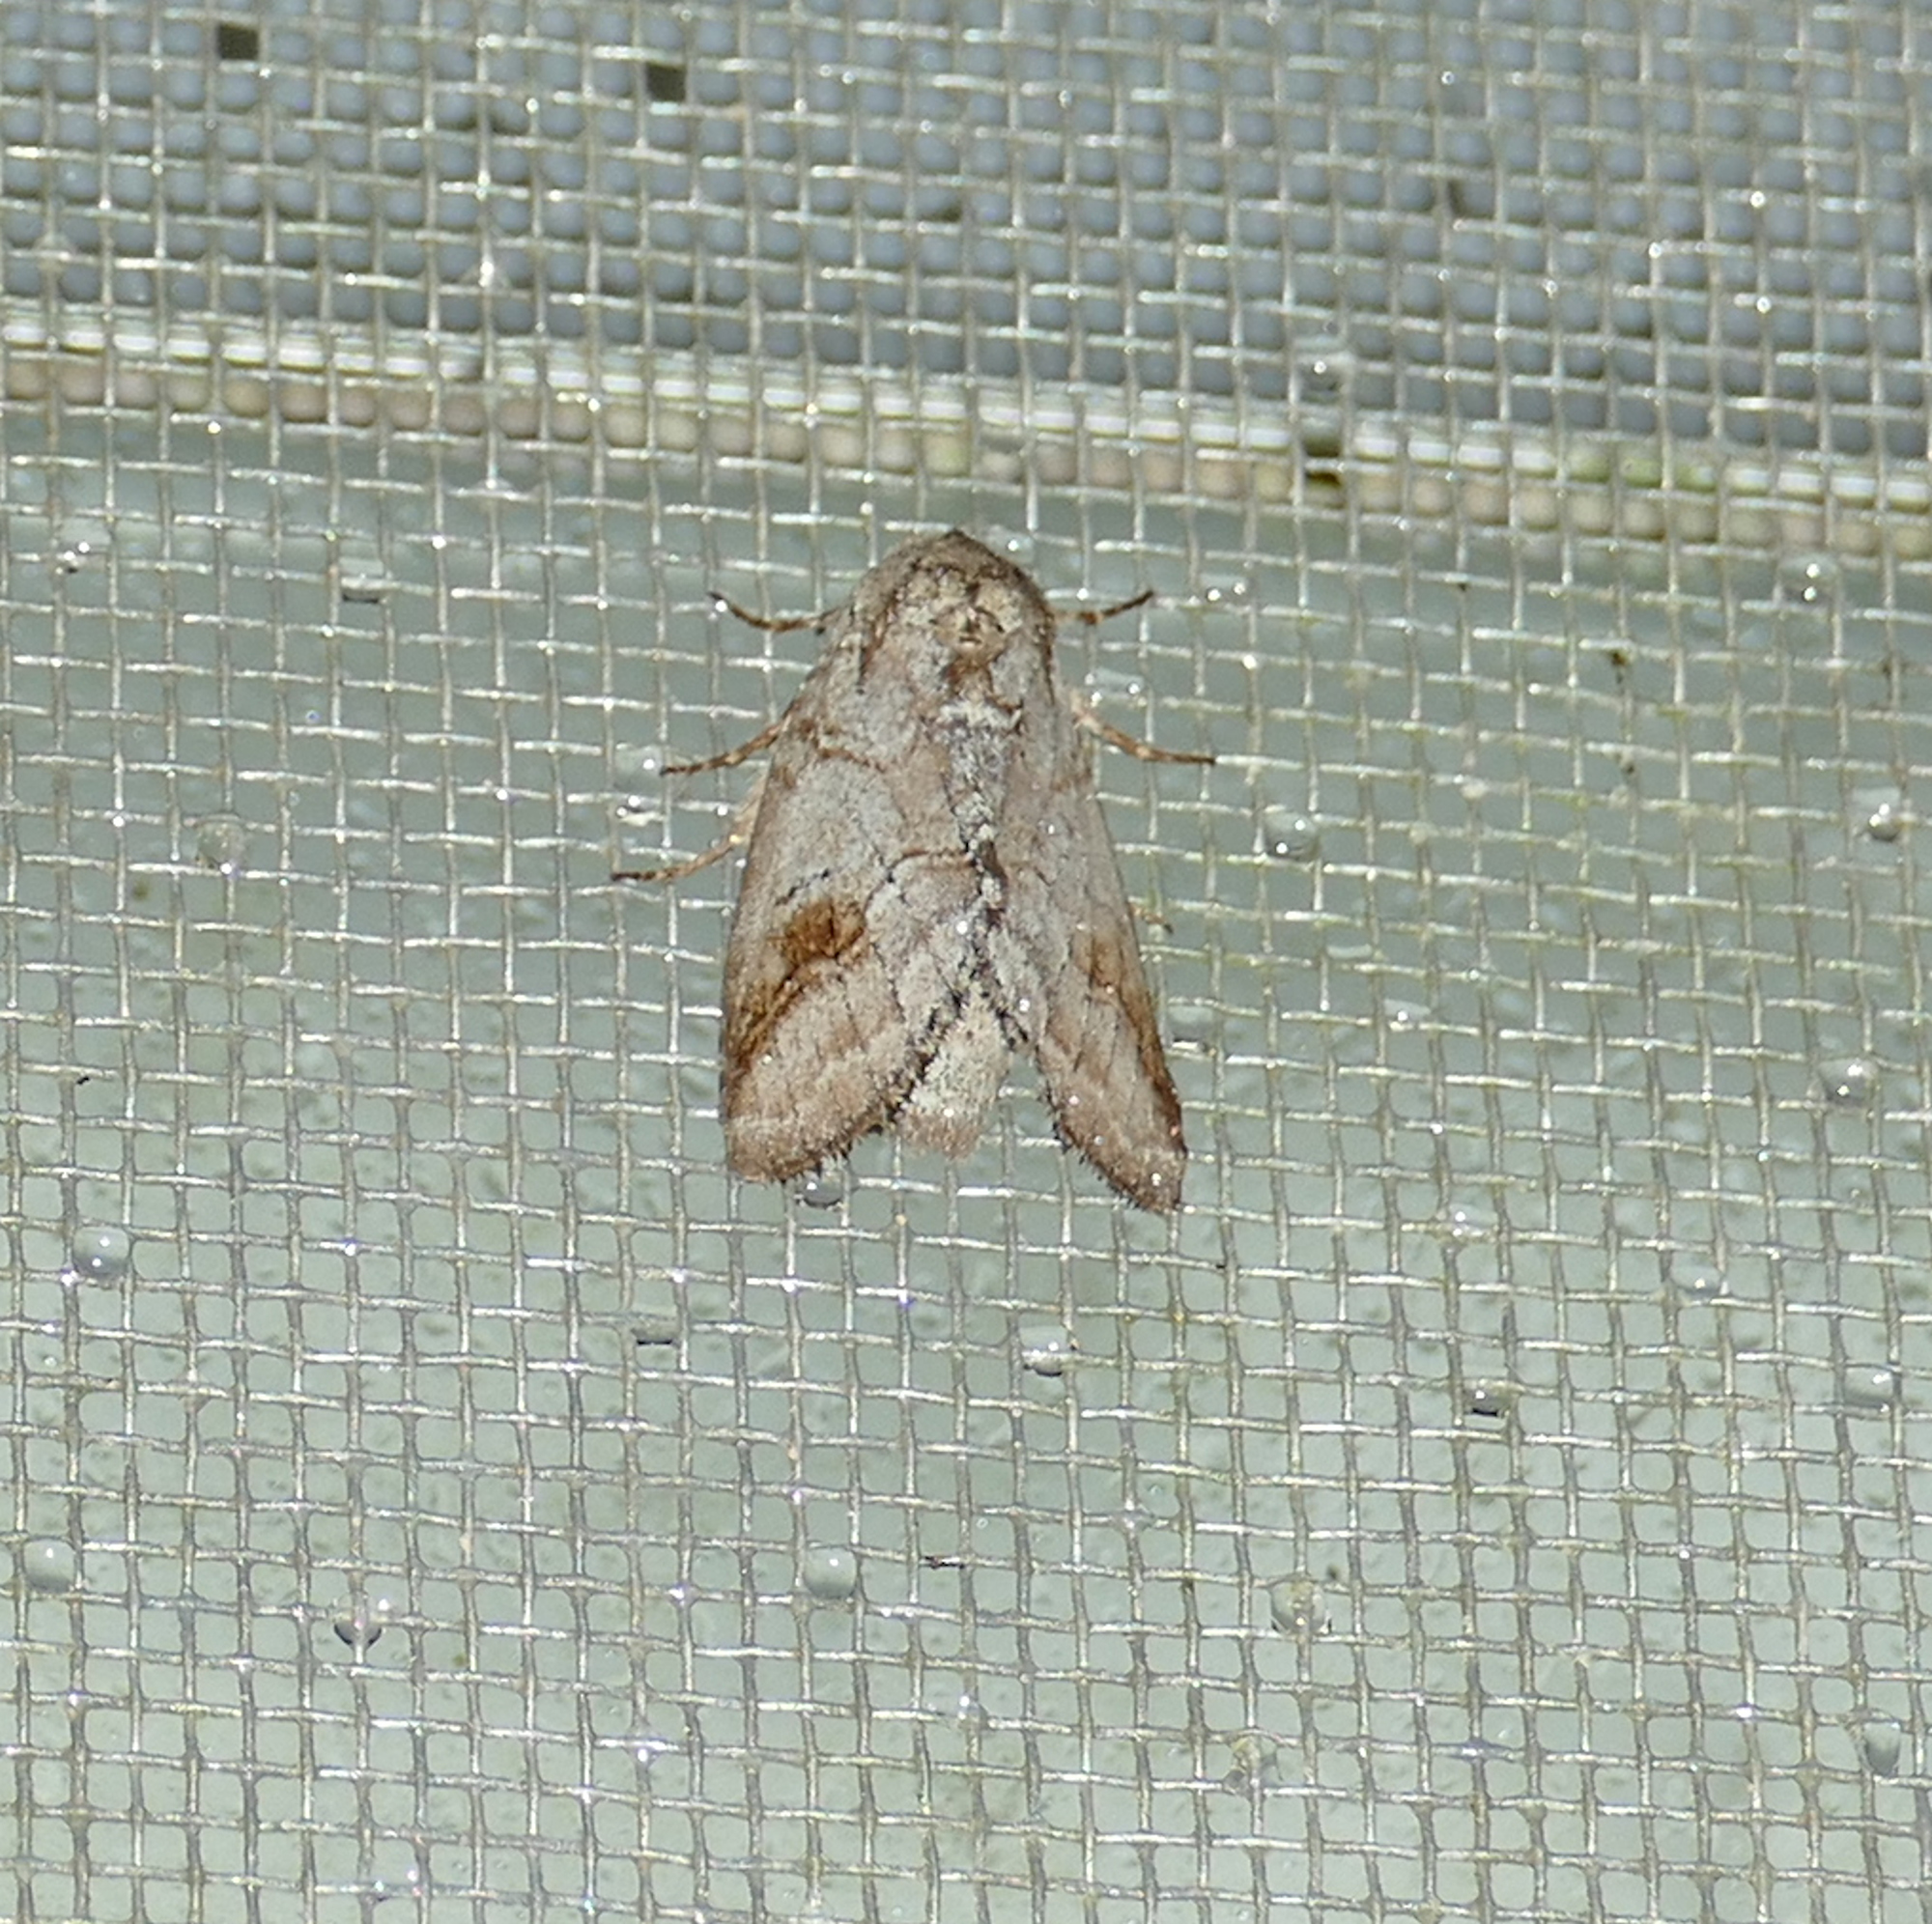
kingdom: Animalia
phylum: Arthropoda
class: Insecta
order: Lepidoptera
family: Notodontidae
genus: Lochmaeus
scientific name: Lochmaeus bilineata
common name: Double-lined prominent
